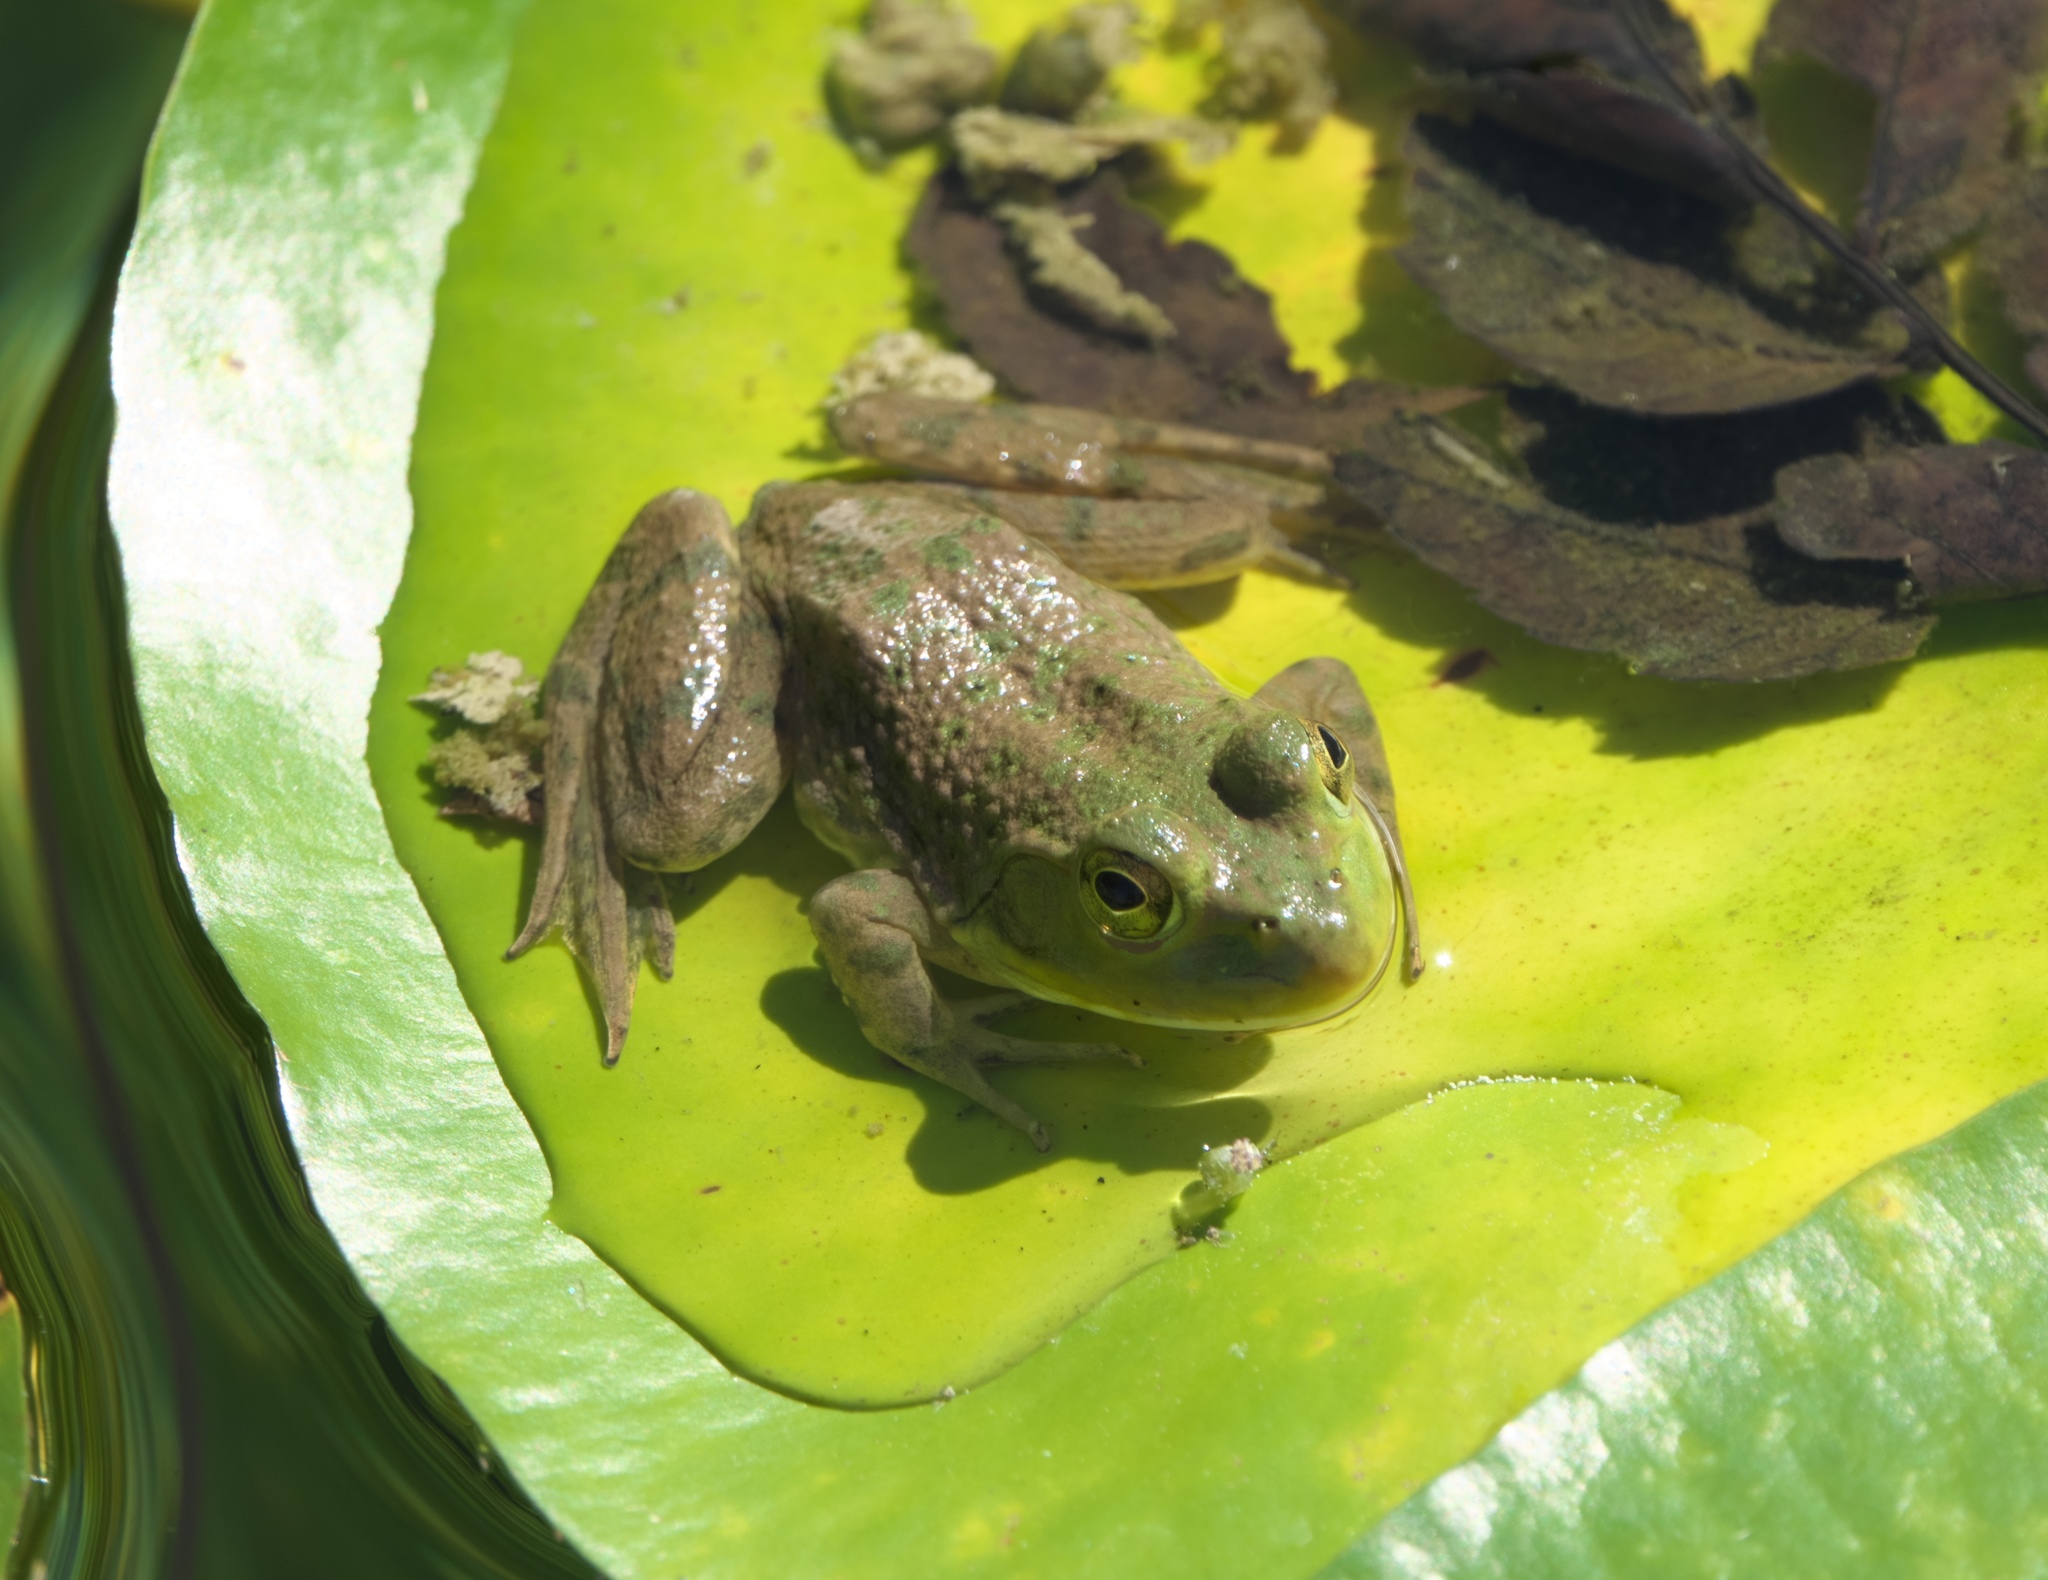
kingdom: Animalia
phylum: Chordata
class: Amphibia
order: Anura
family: Ranidae
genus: Lithobates
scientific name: Lithobates catesbeianus
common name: American bullfrog
